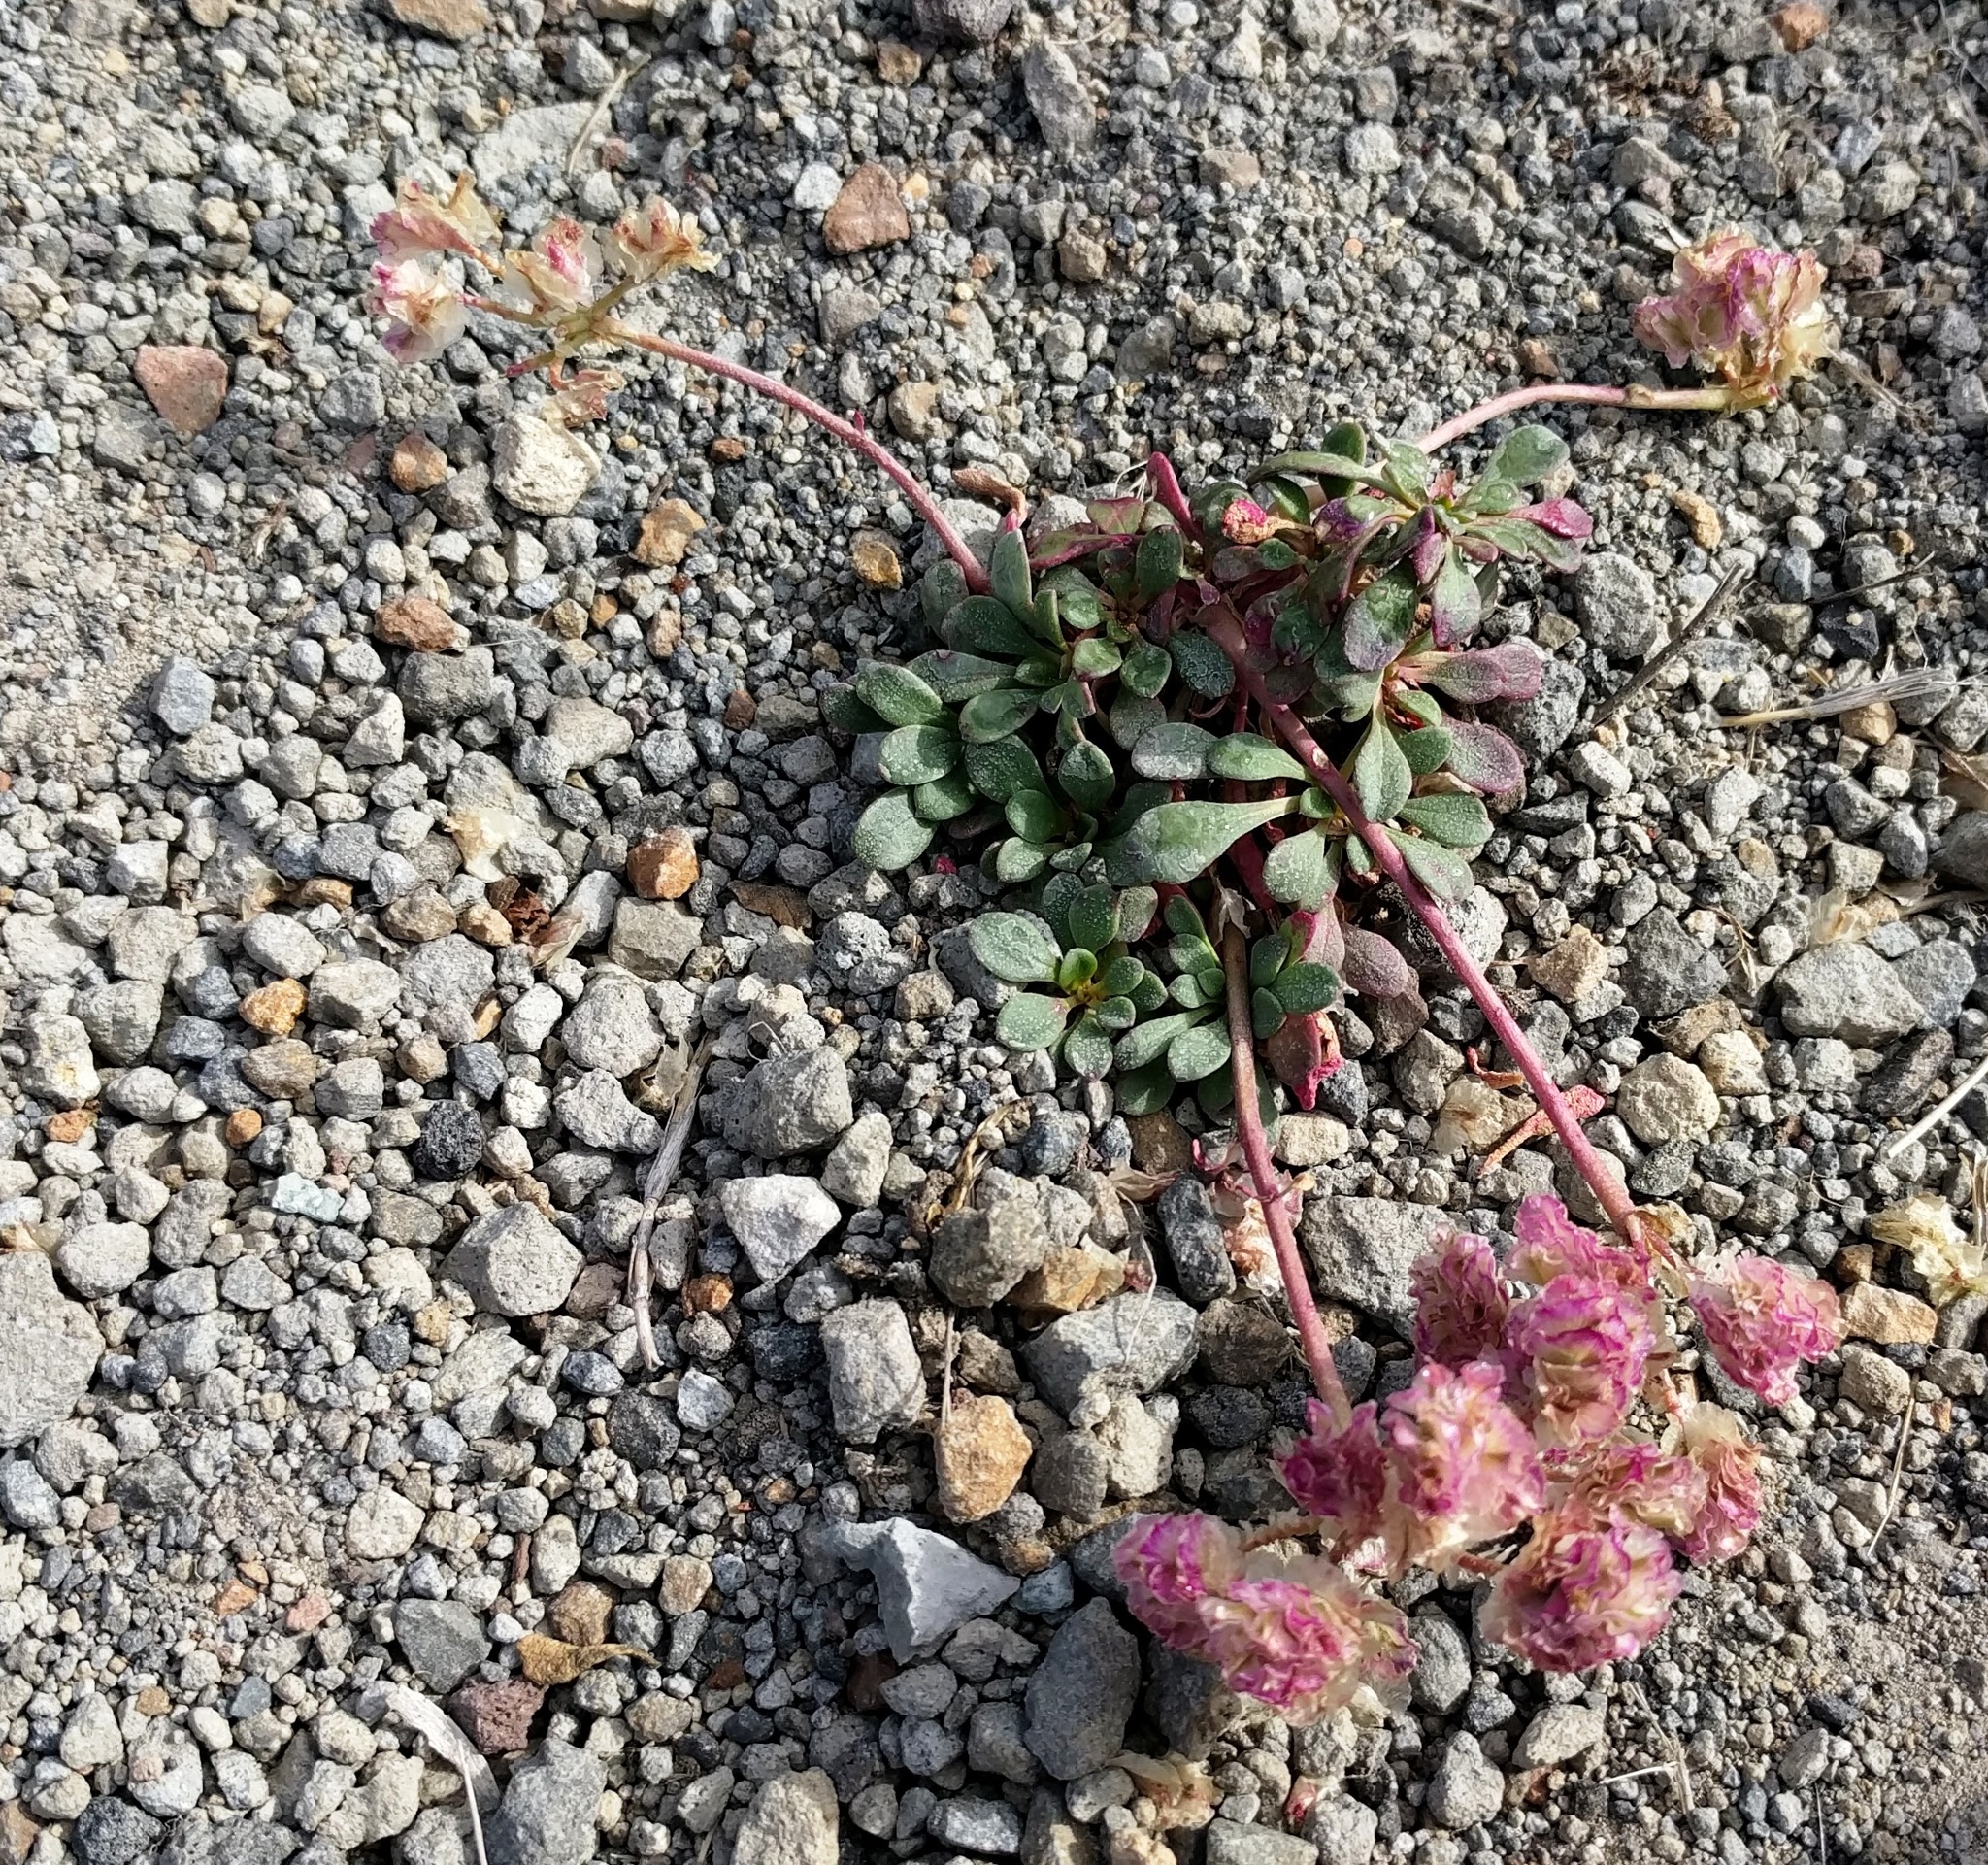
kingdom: Plantae
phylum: Tracheophyta
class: Magnoliopsida
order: Caryophyllales
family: Montiaceae
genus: Calyptridium
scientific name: Calyptridium umbellatum
